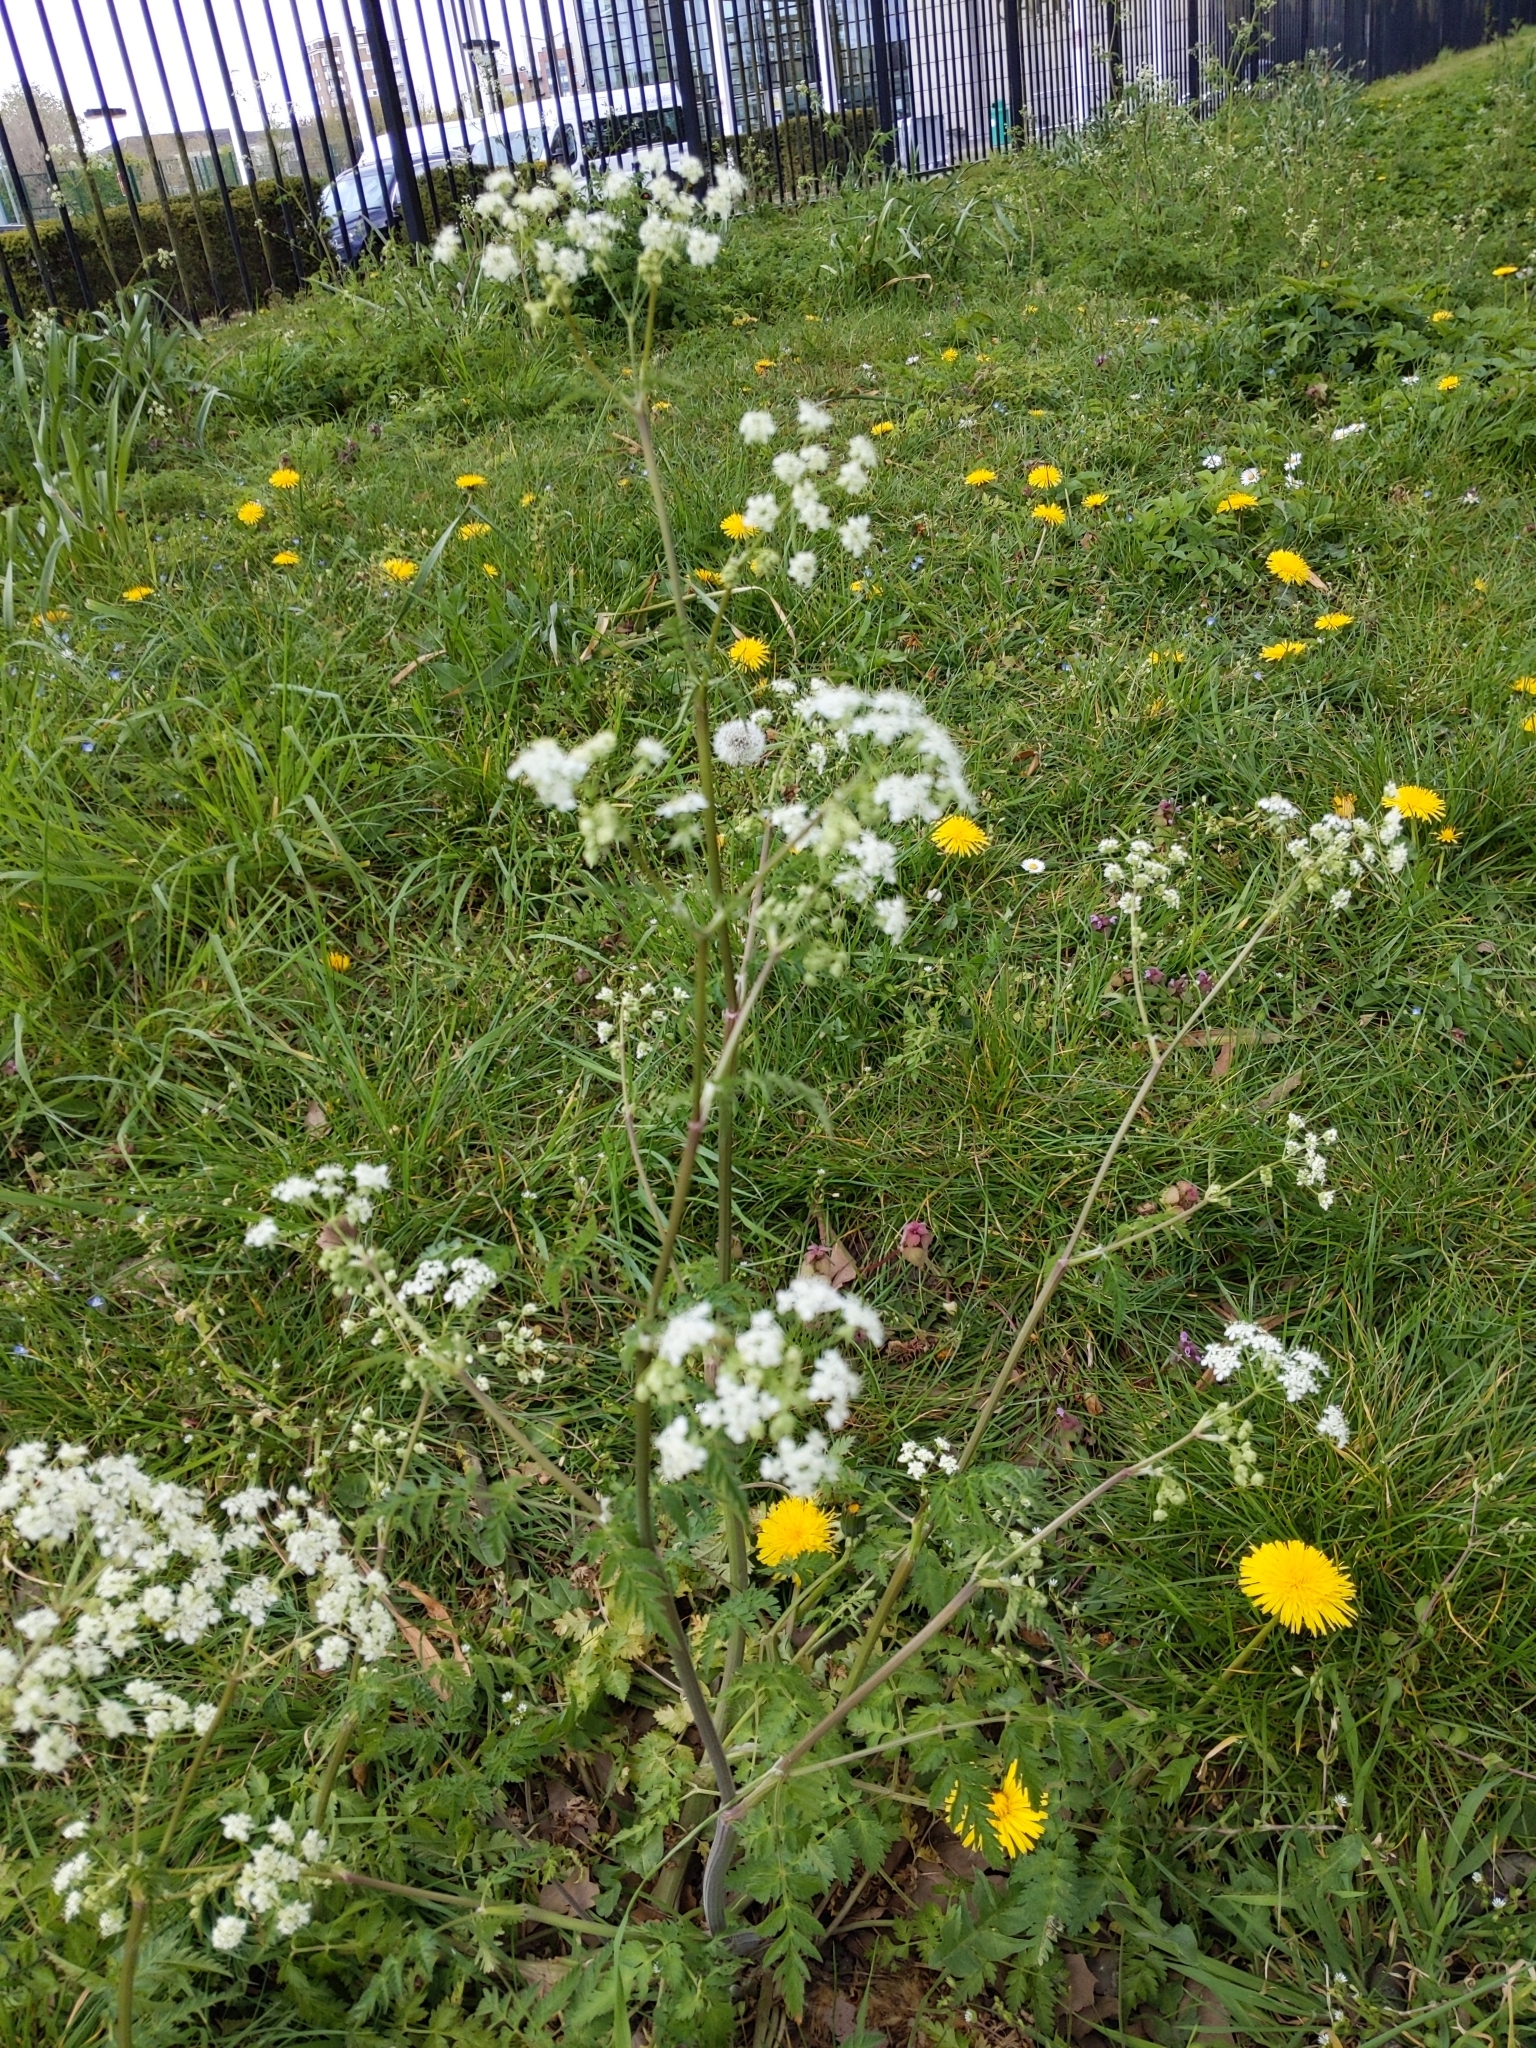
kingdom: Plantae
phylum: Tracheophyta
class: Magnoliopsida
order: Apiales
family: Apiaceae
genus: Anthriscus
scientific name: Anthriscus sylvestris
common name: Cow parsley
